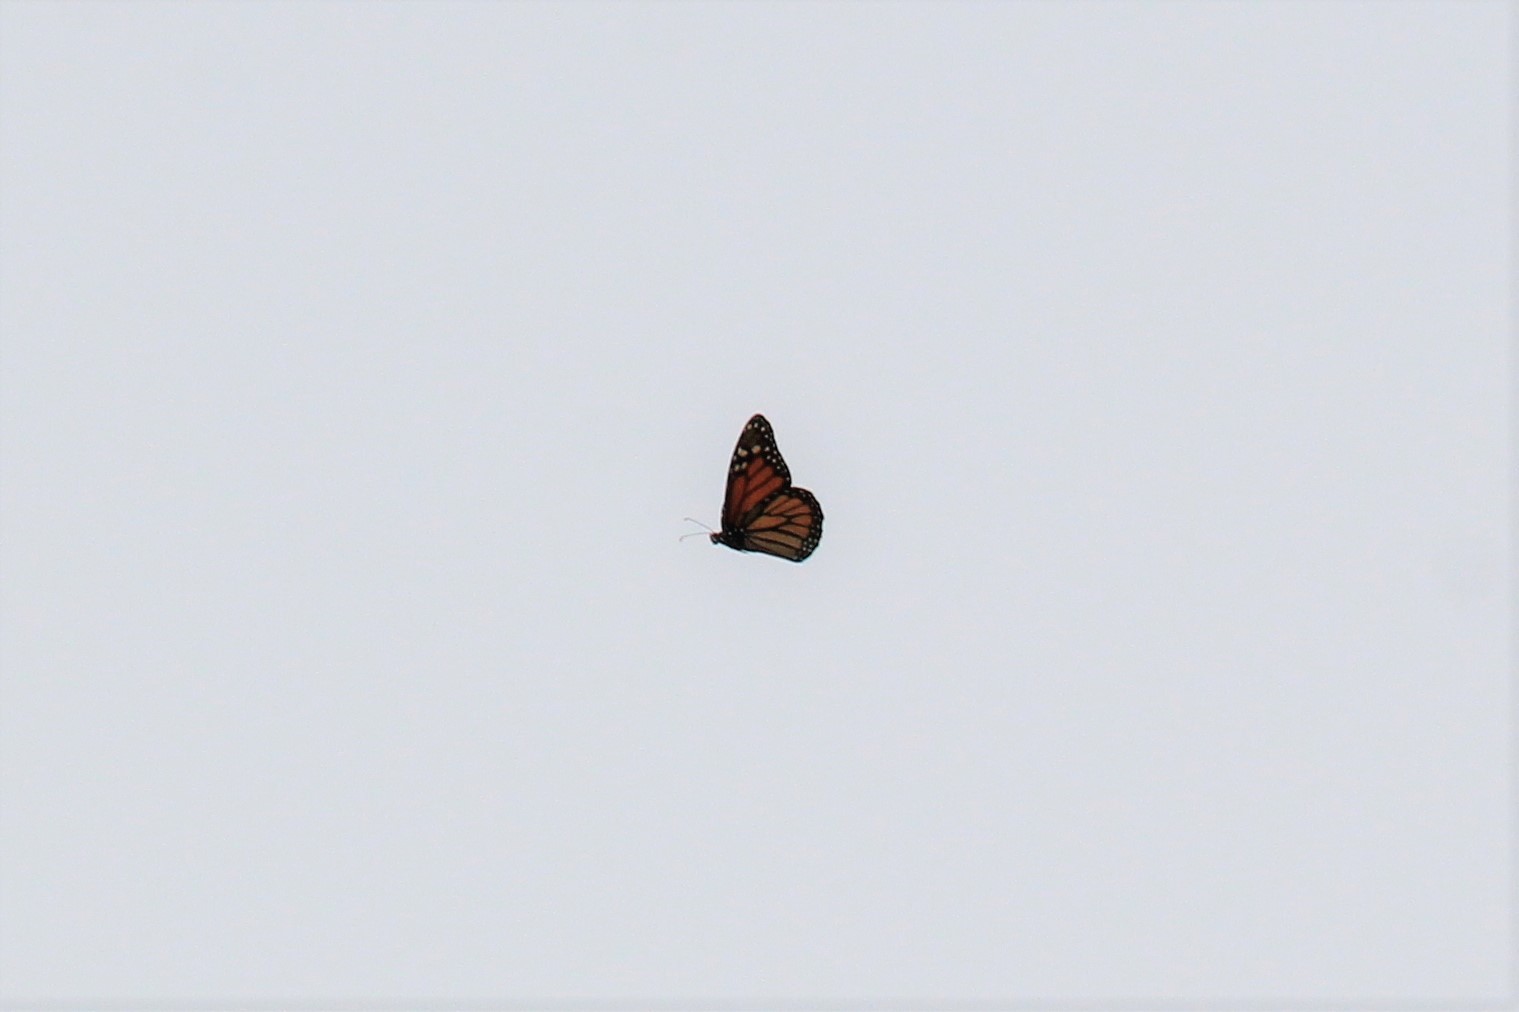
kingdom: Animalia
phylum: Arthropoda
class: Insecta
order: Lepidoptera
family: Nymphalidae
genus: Danaus
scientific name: Danaus plexippus
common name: Monarch
